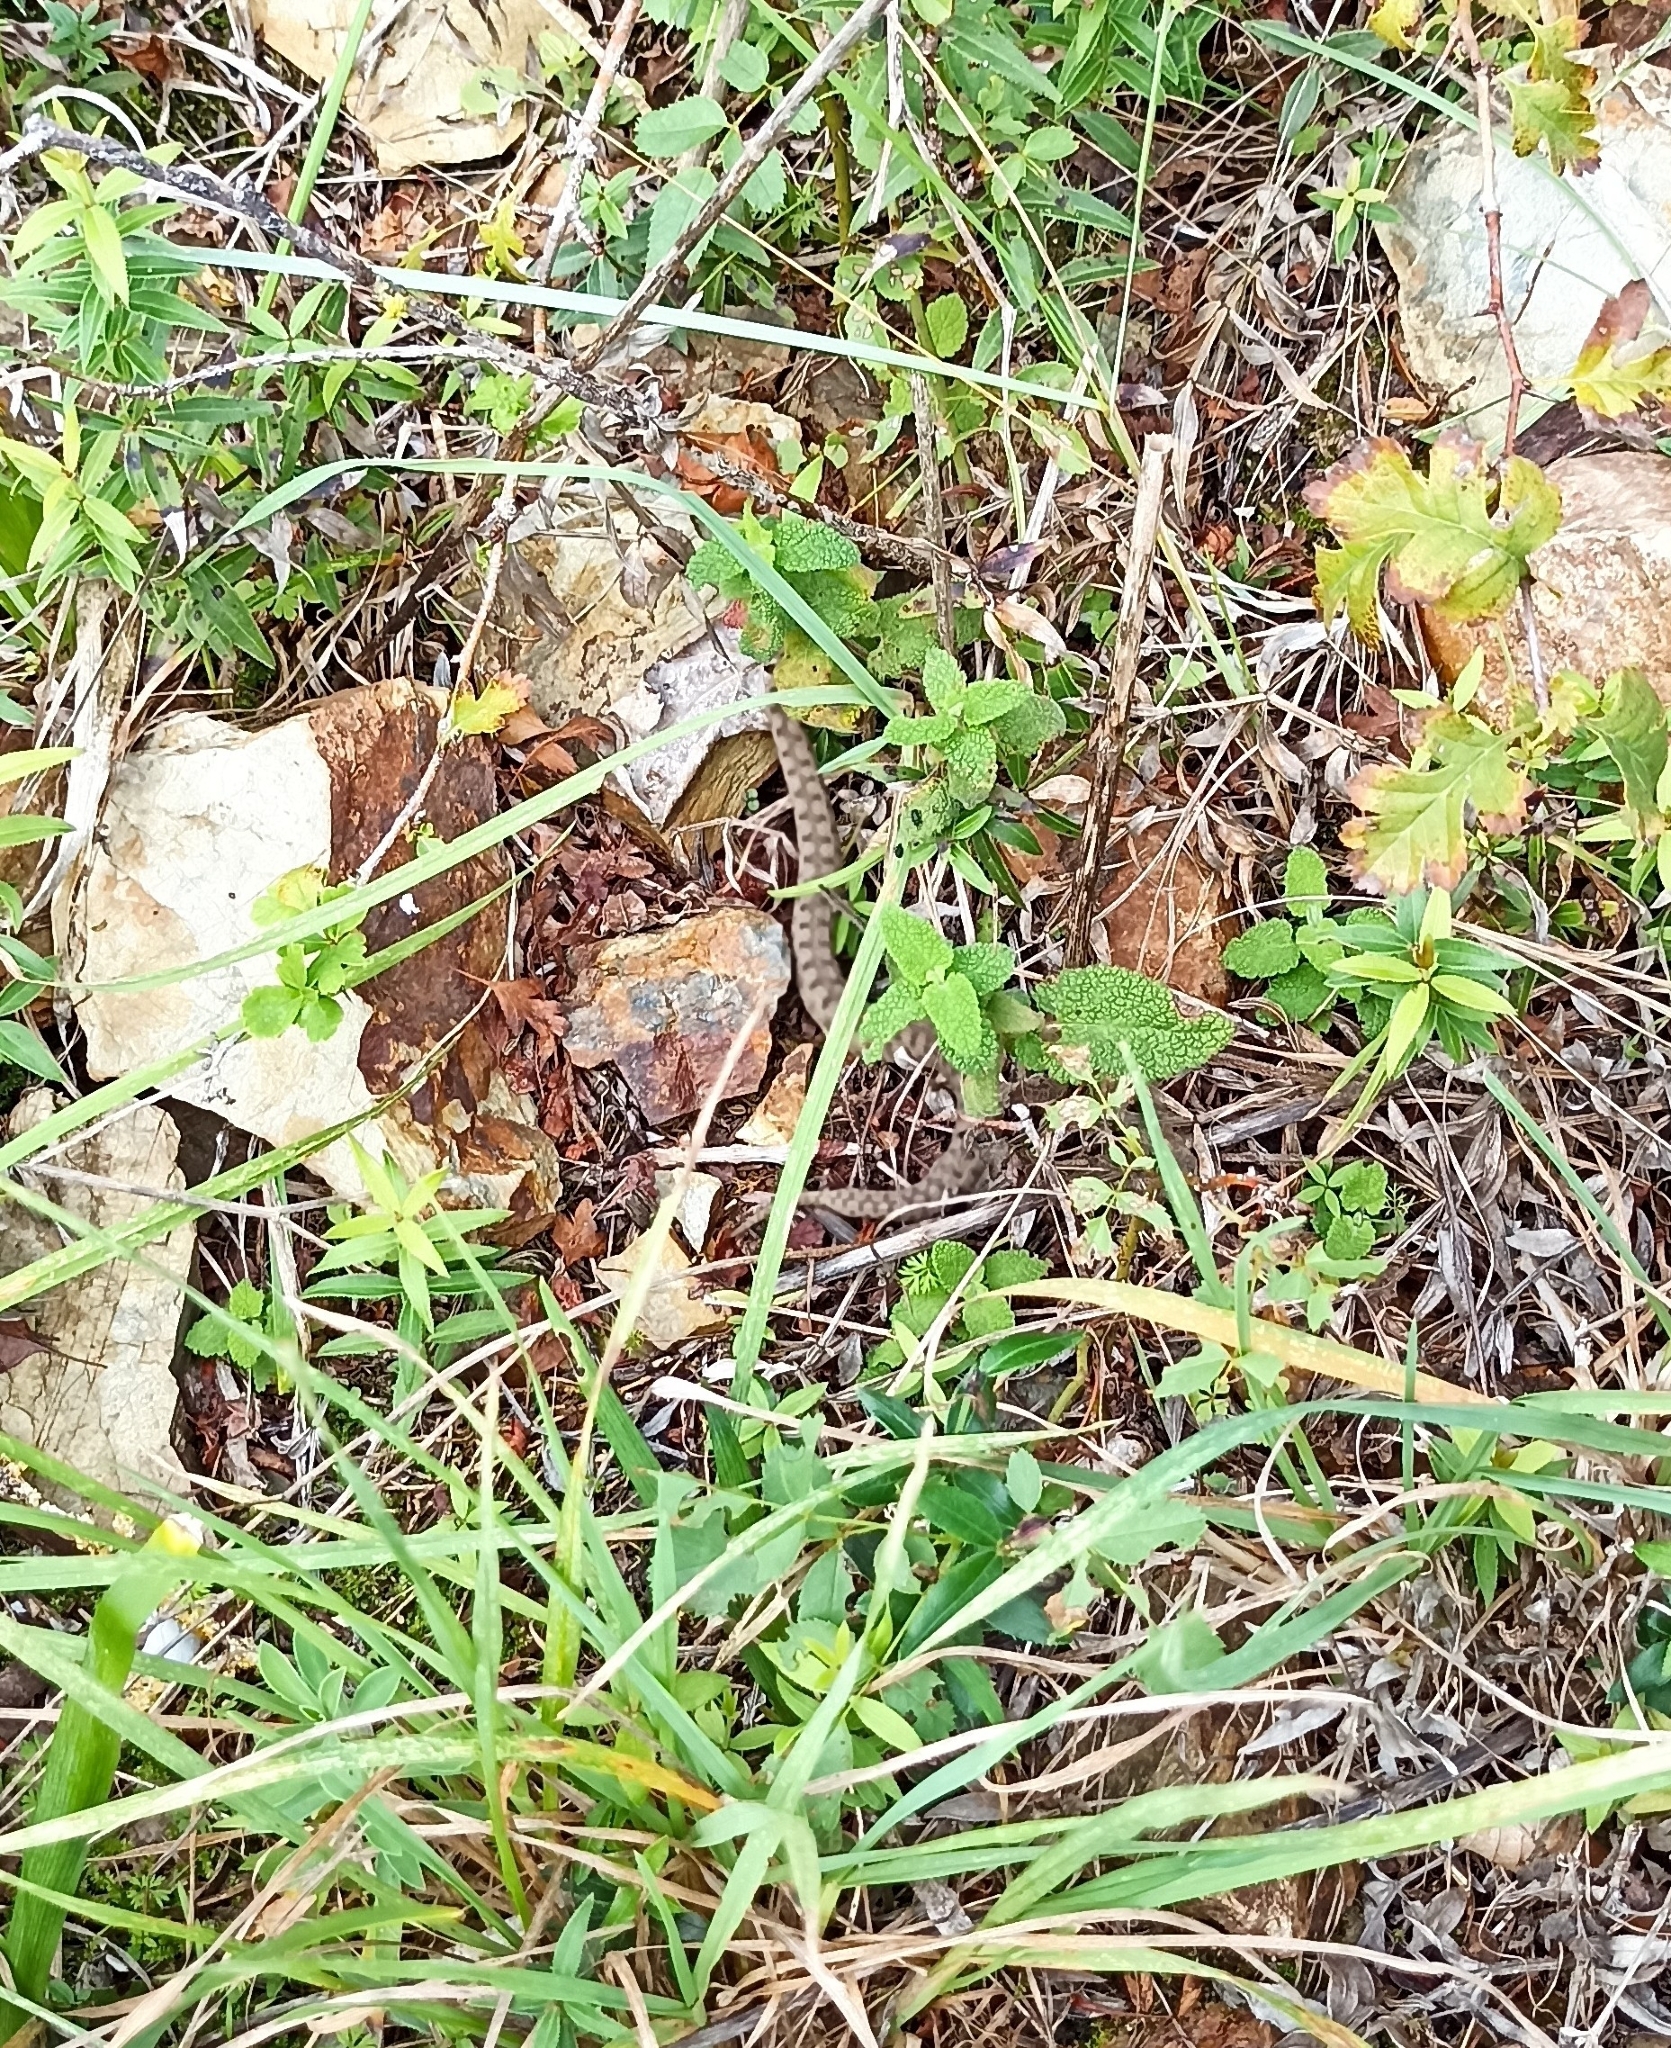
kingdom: Animalia
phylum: Chordata
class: Squamata
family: Viperidae
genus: Vipera
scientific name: Vipera aspis
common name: Asp viper
